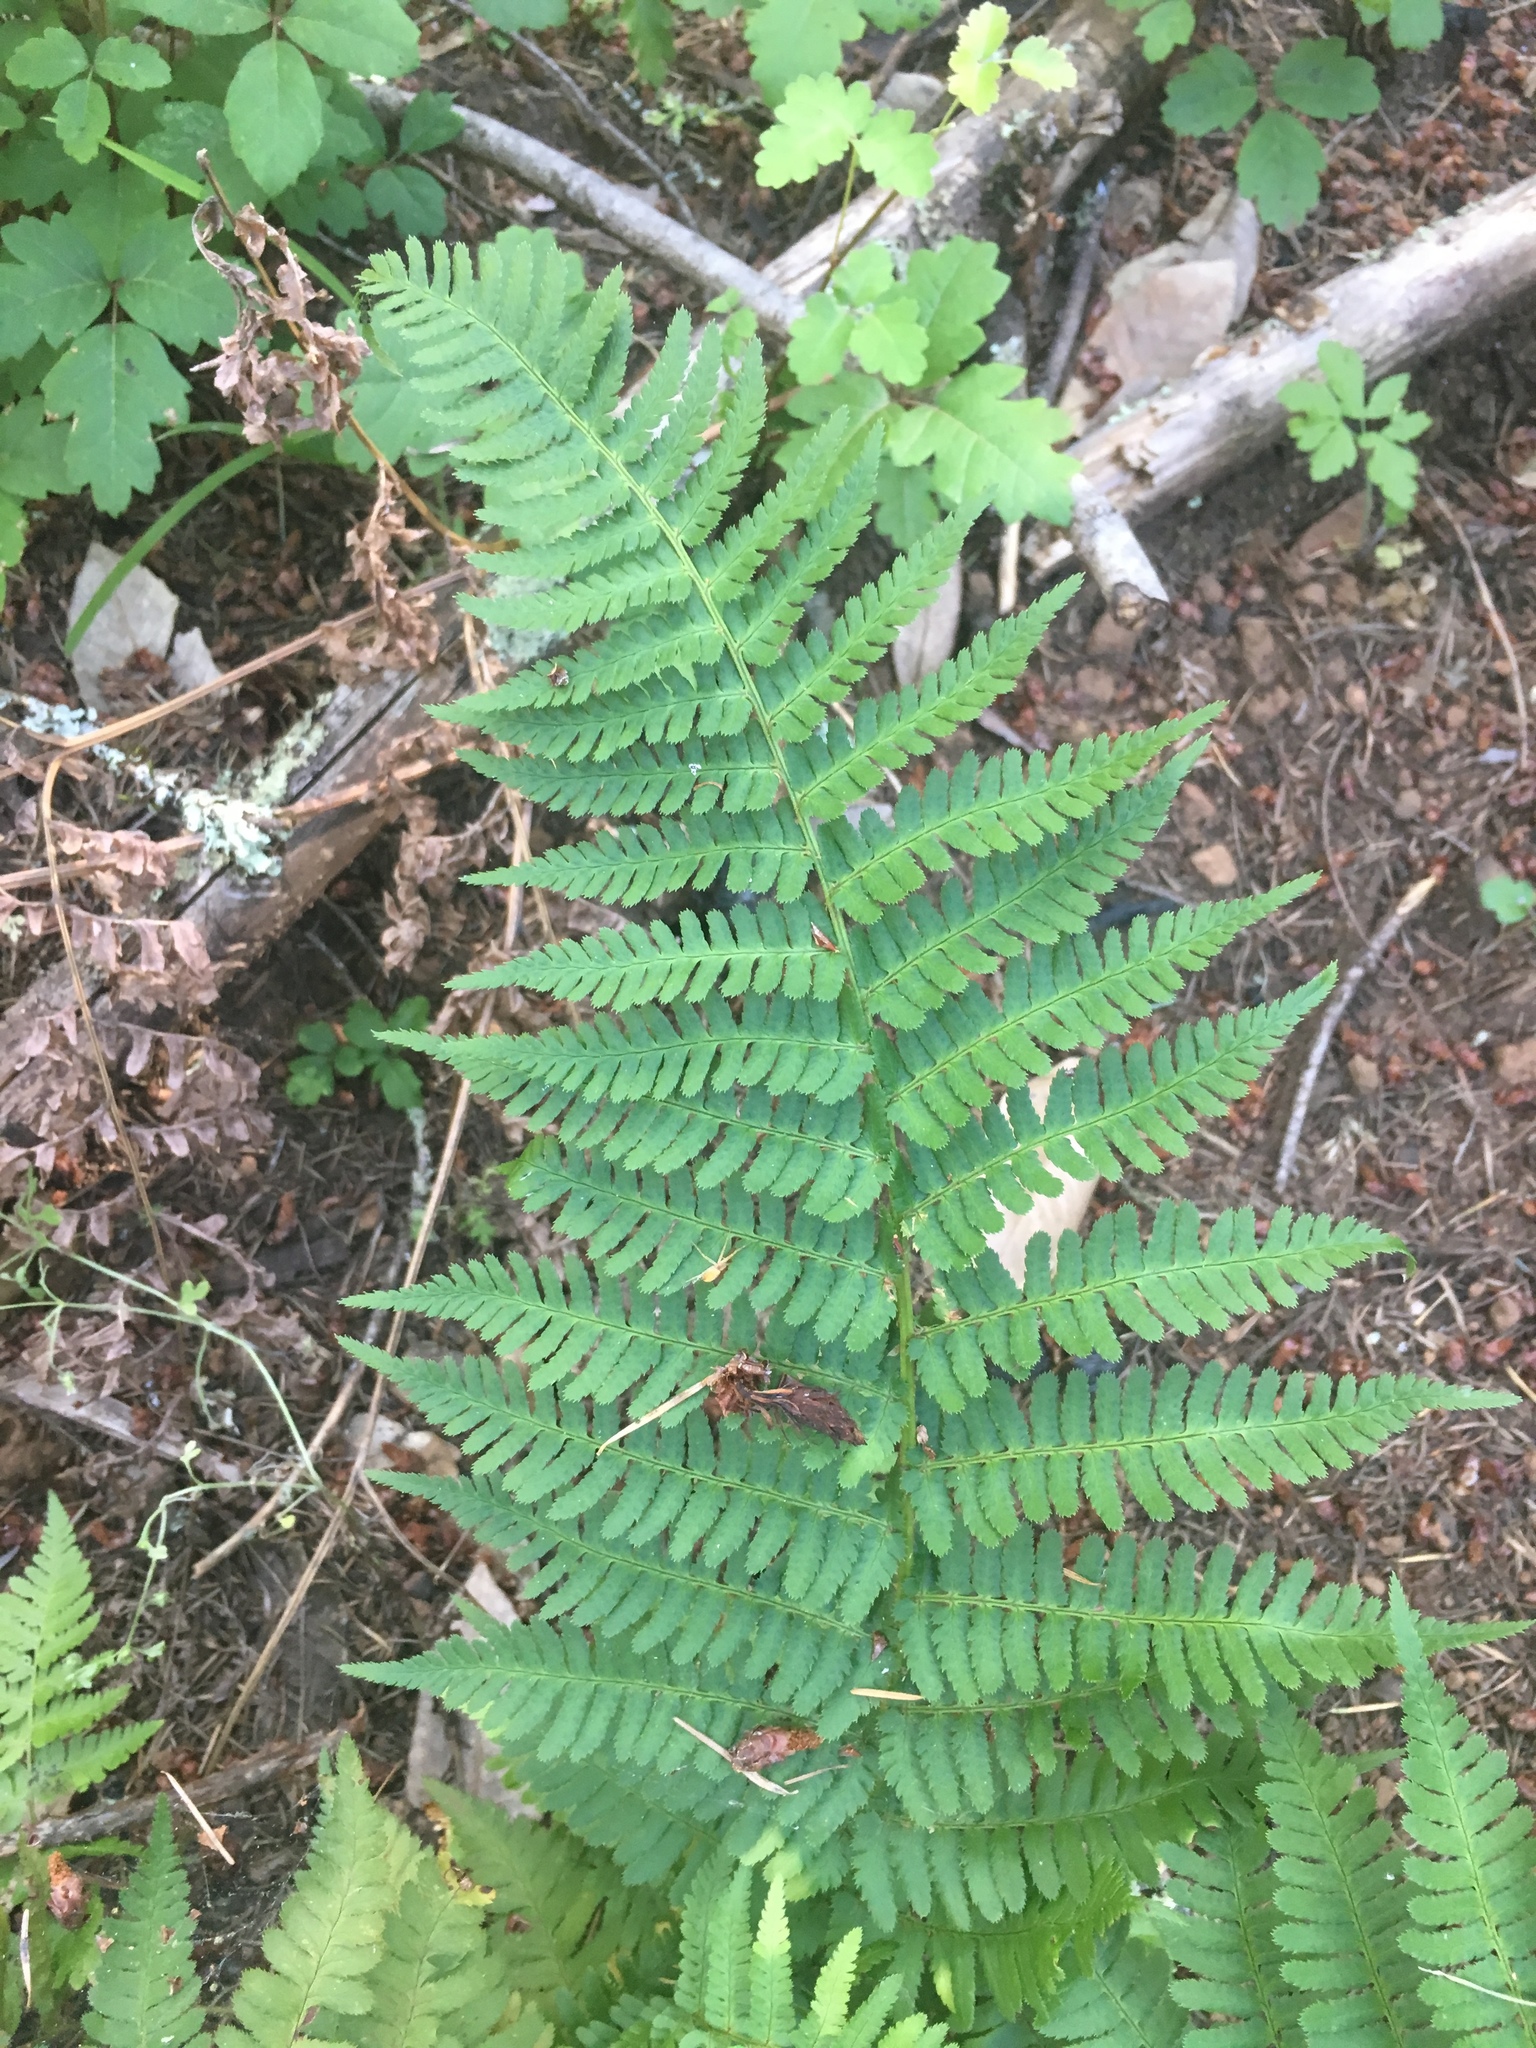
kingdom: Plantae
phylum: Tracheophyta
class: Polypodiopsida
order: Polypodiales
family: Dryopteridaceae
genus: Dryopteris
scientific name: Dryopteris arguta
